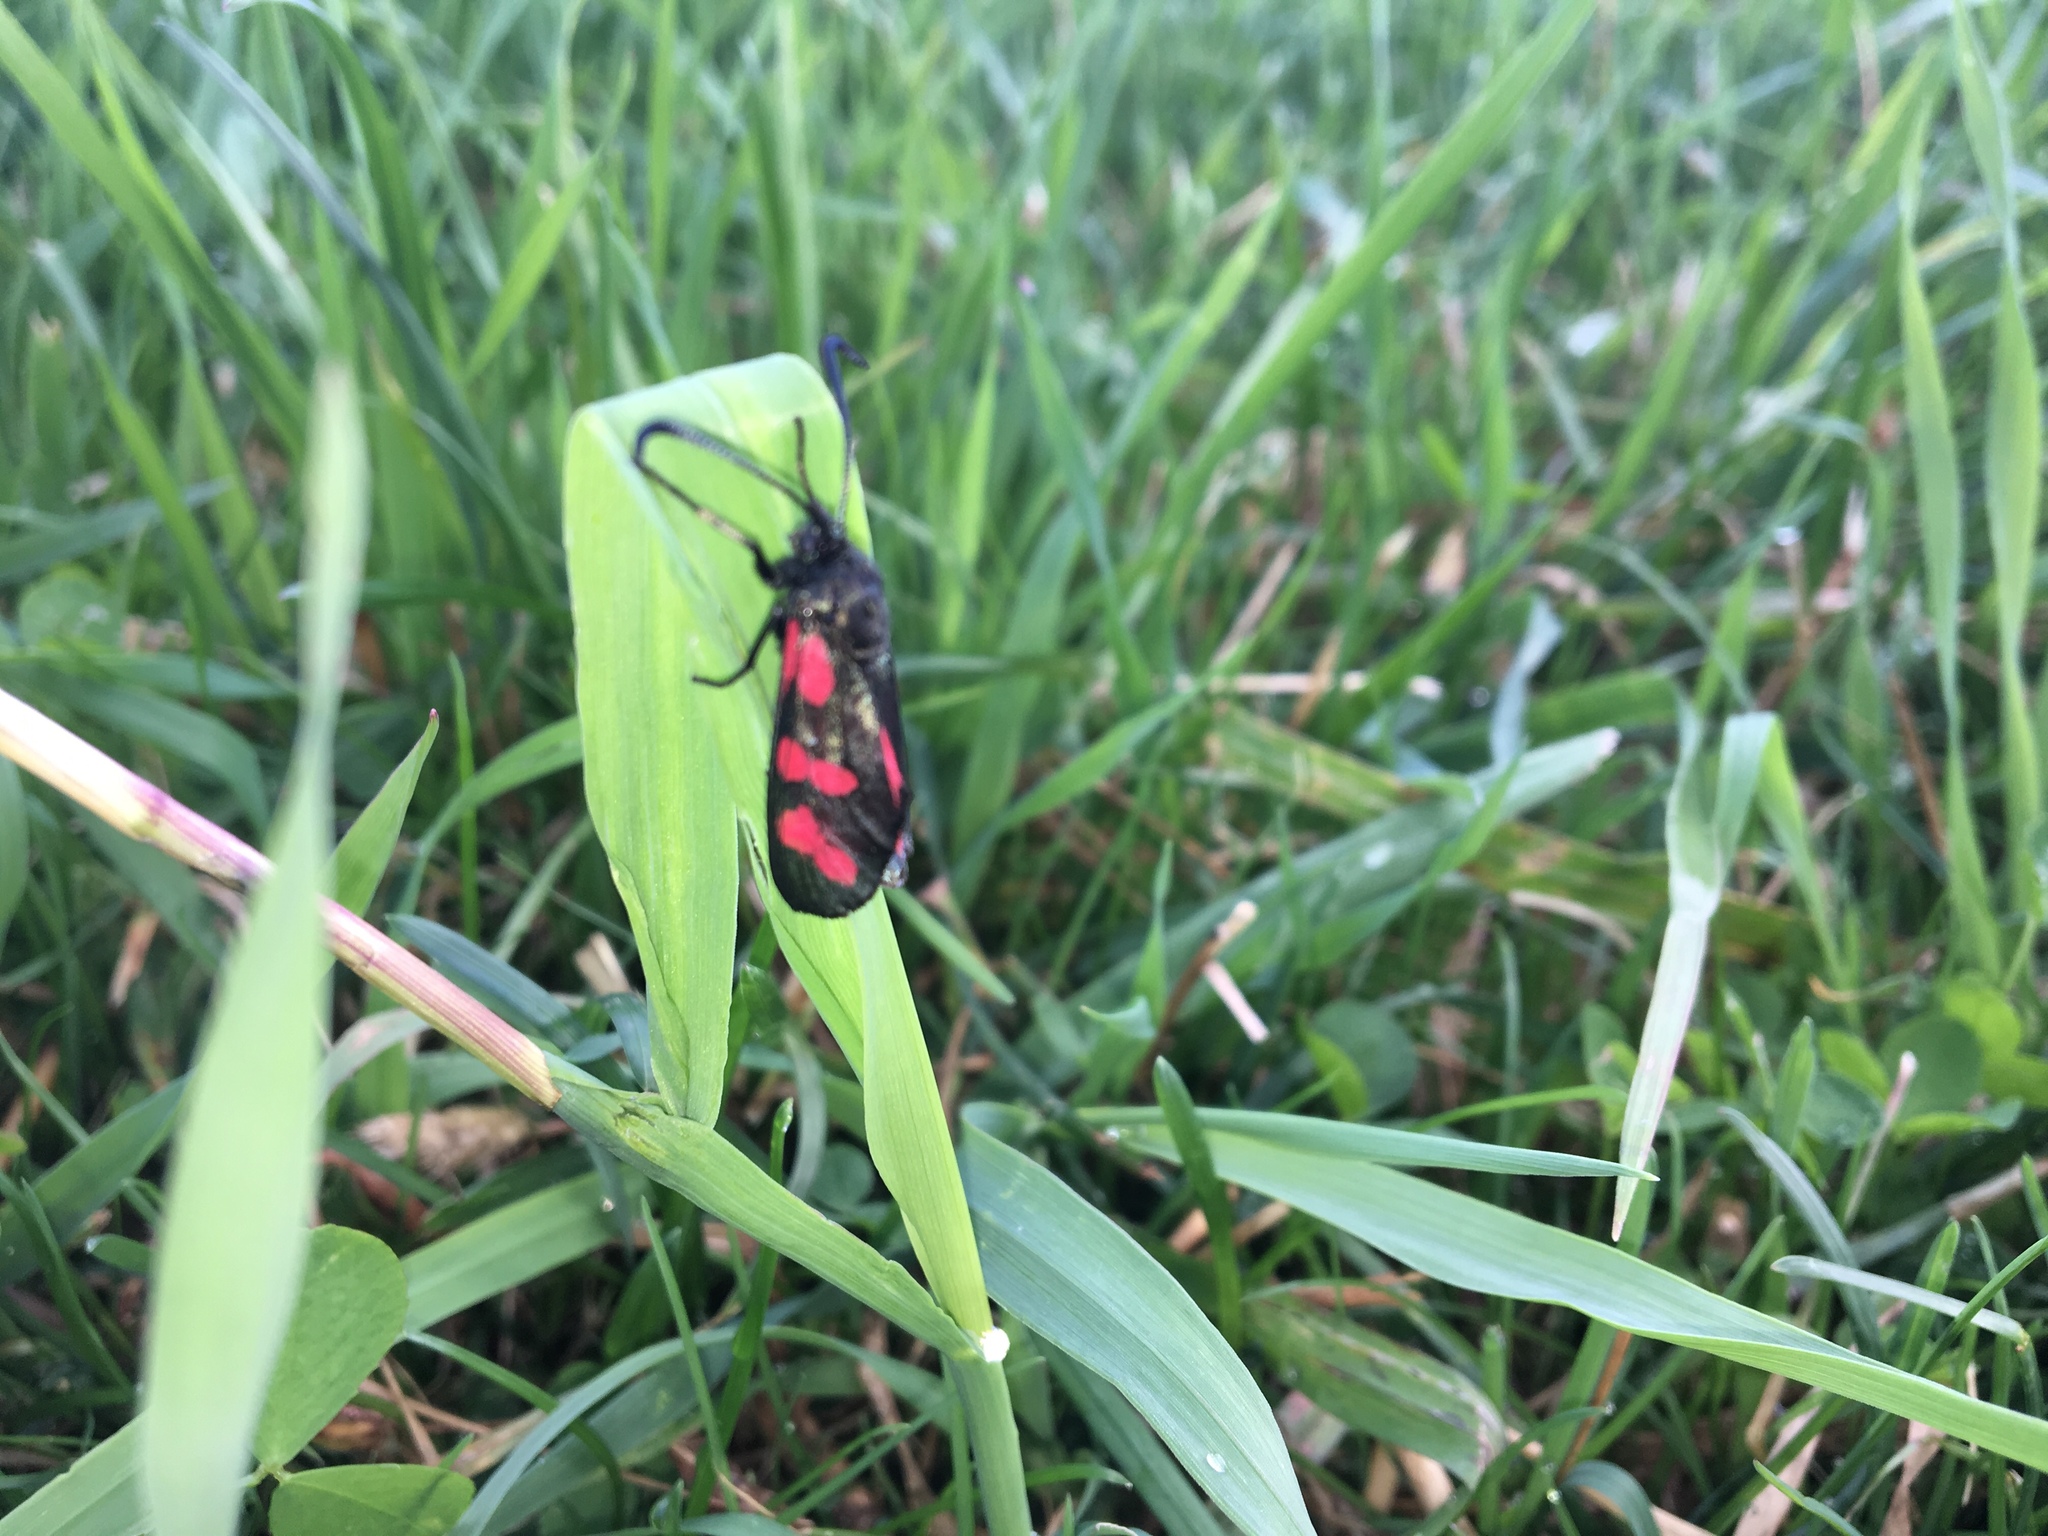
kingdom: Animalia
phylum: Arthropoda
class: Insecta
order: Lepidoptera
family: Zygaenidae
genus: Zygaena
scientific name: Zygaena filipendulae
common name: Six-spot burnet
